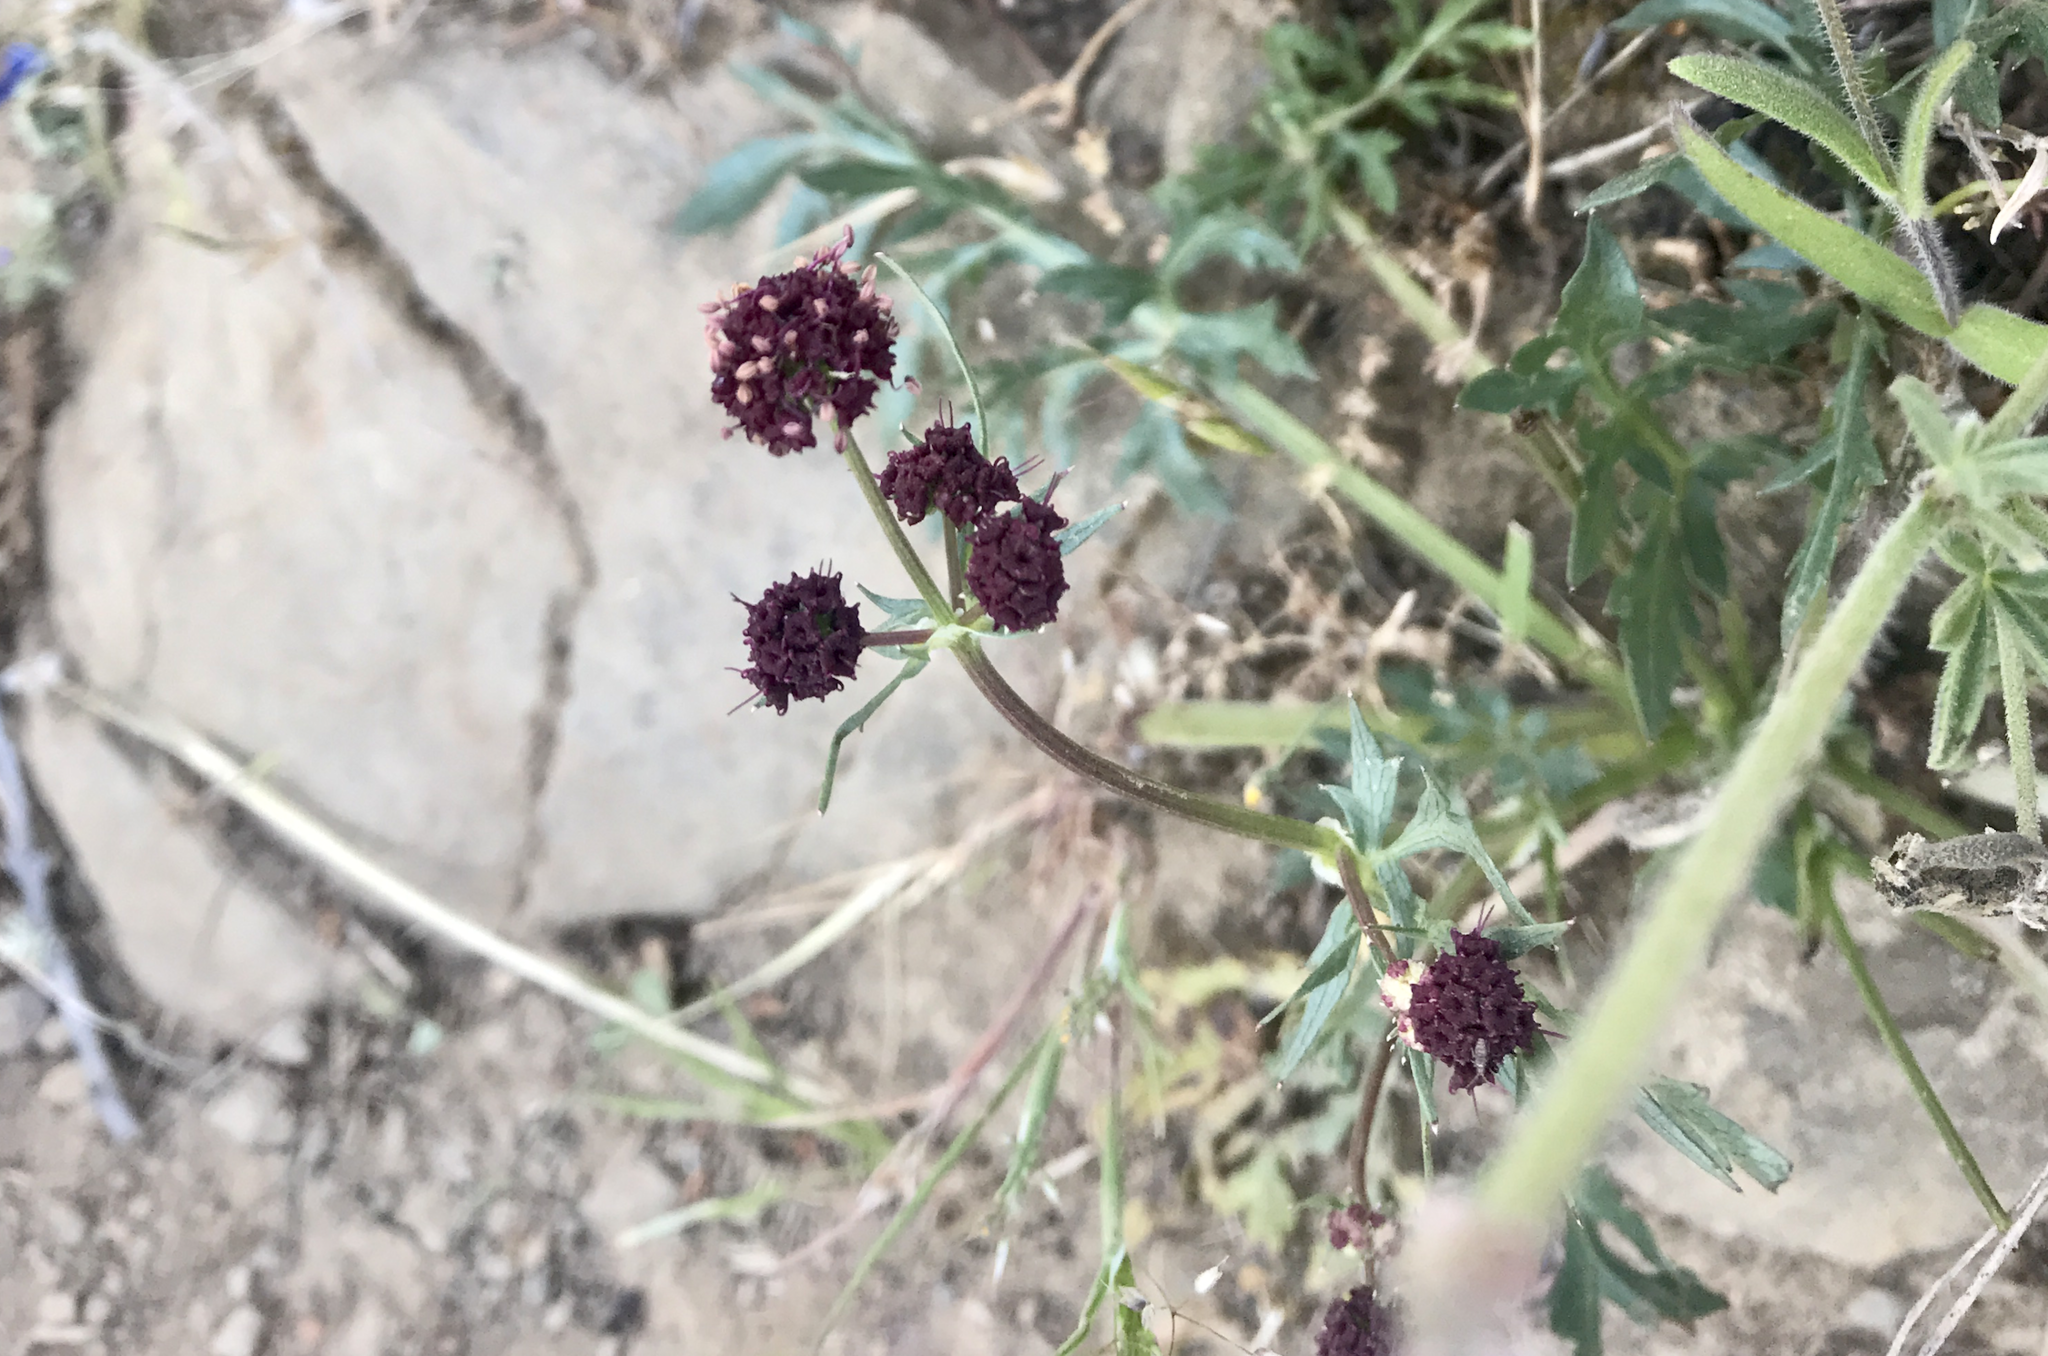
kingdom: Plantae
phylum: Tracheophyta
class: Magnoliopsida
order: Apiales
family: Apiaceae
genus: Sanicula
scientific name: Sanicula bipinnatifida
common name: Shoe-buttons
